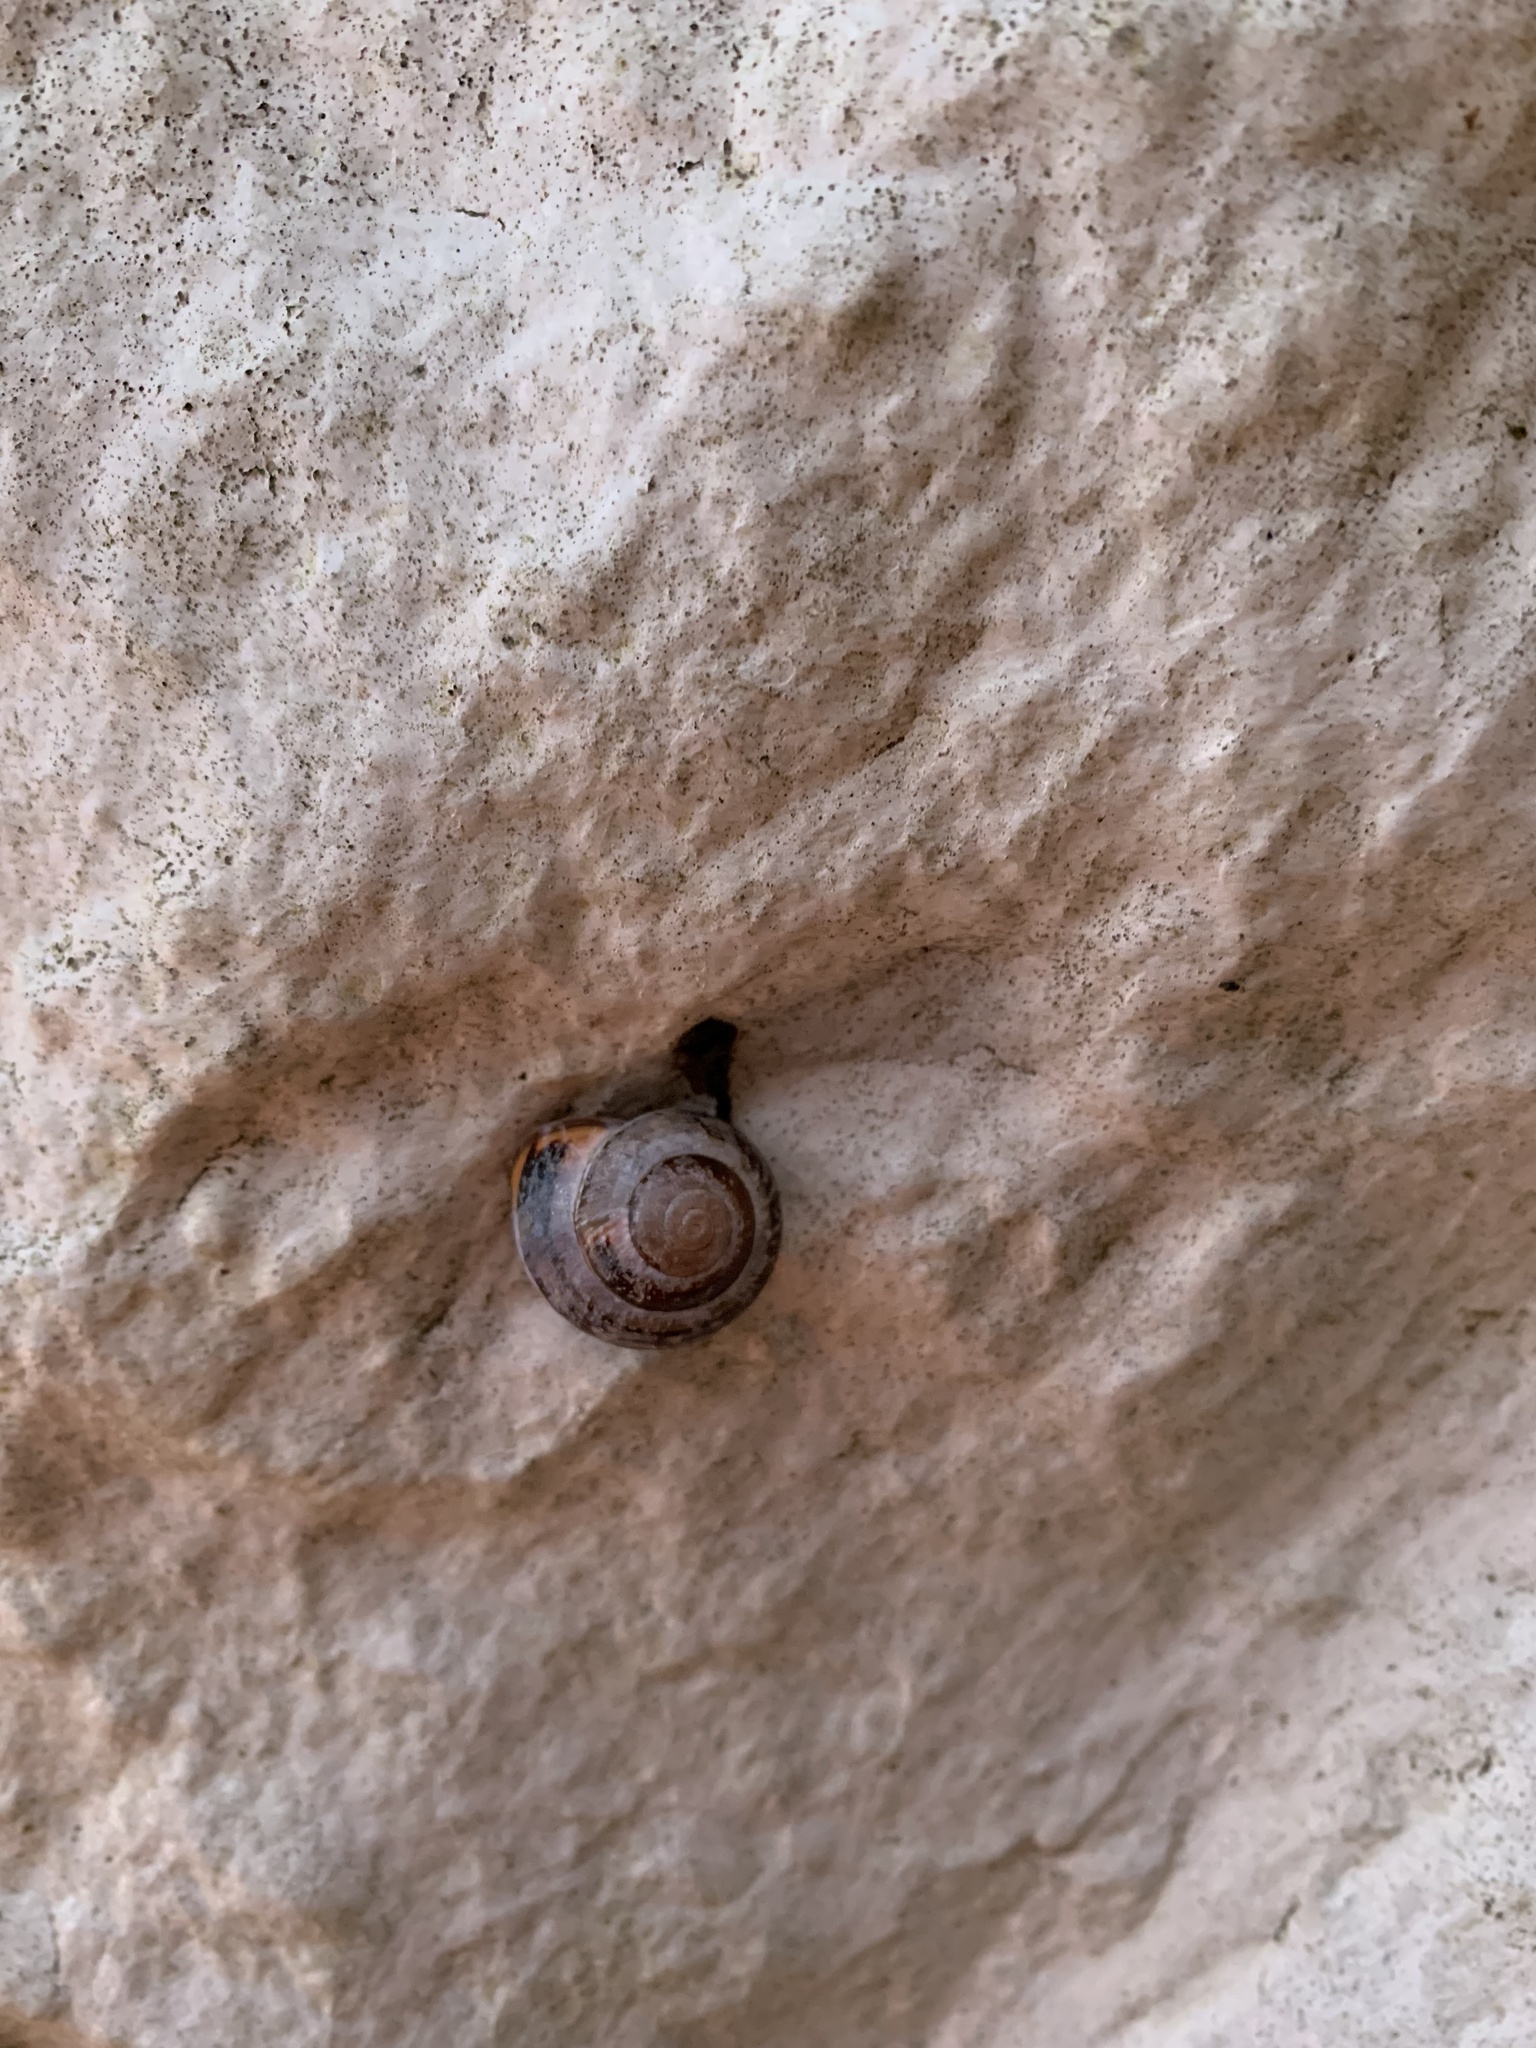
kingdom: Animalia
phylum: Mollusca
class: Gastropoda
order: Stylommatophora
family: Helicidae
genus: Cepaea
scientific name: Cepaea nemoralis
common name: Grovesnail
